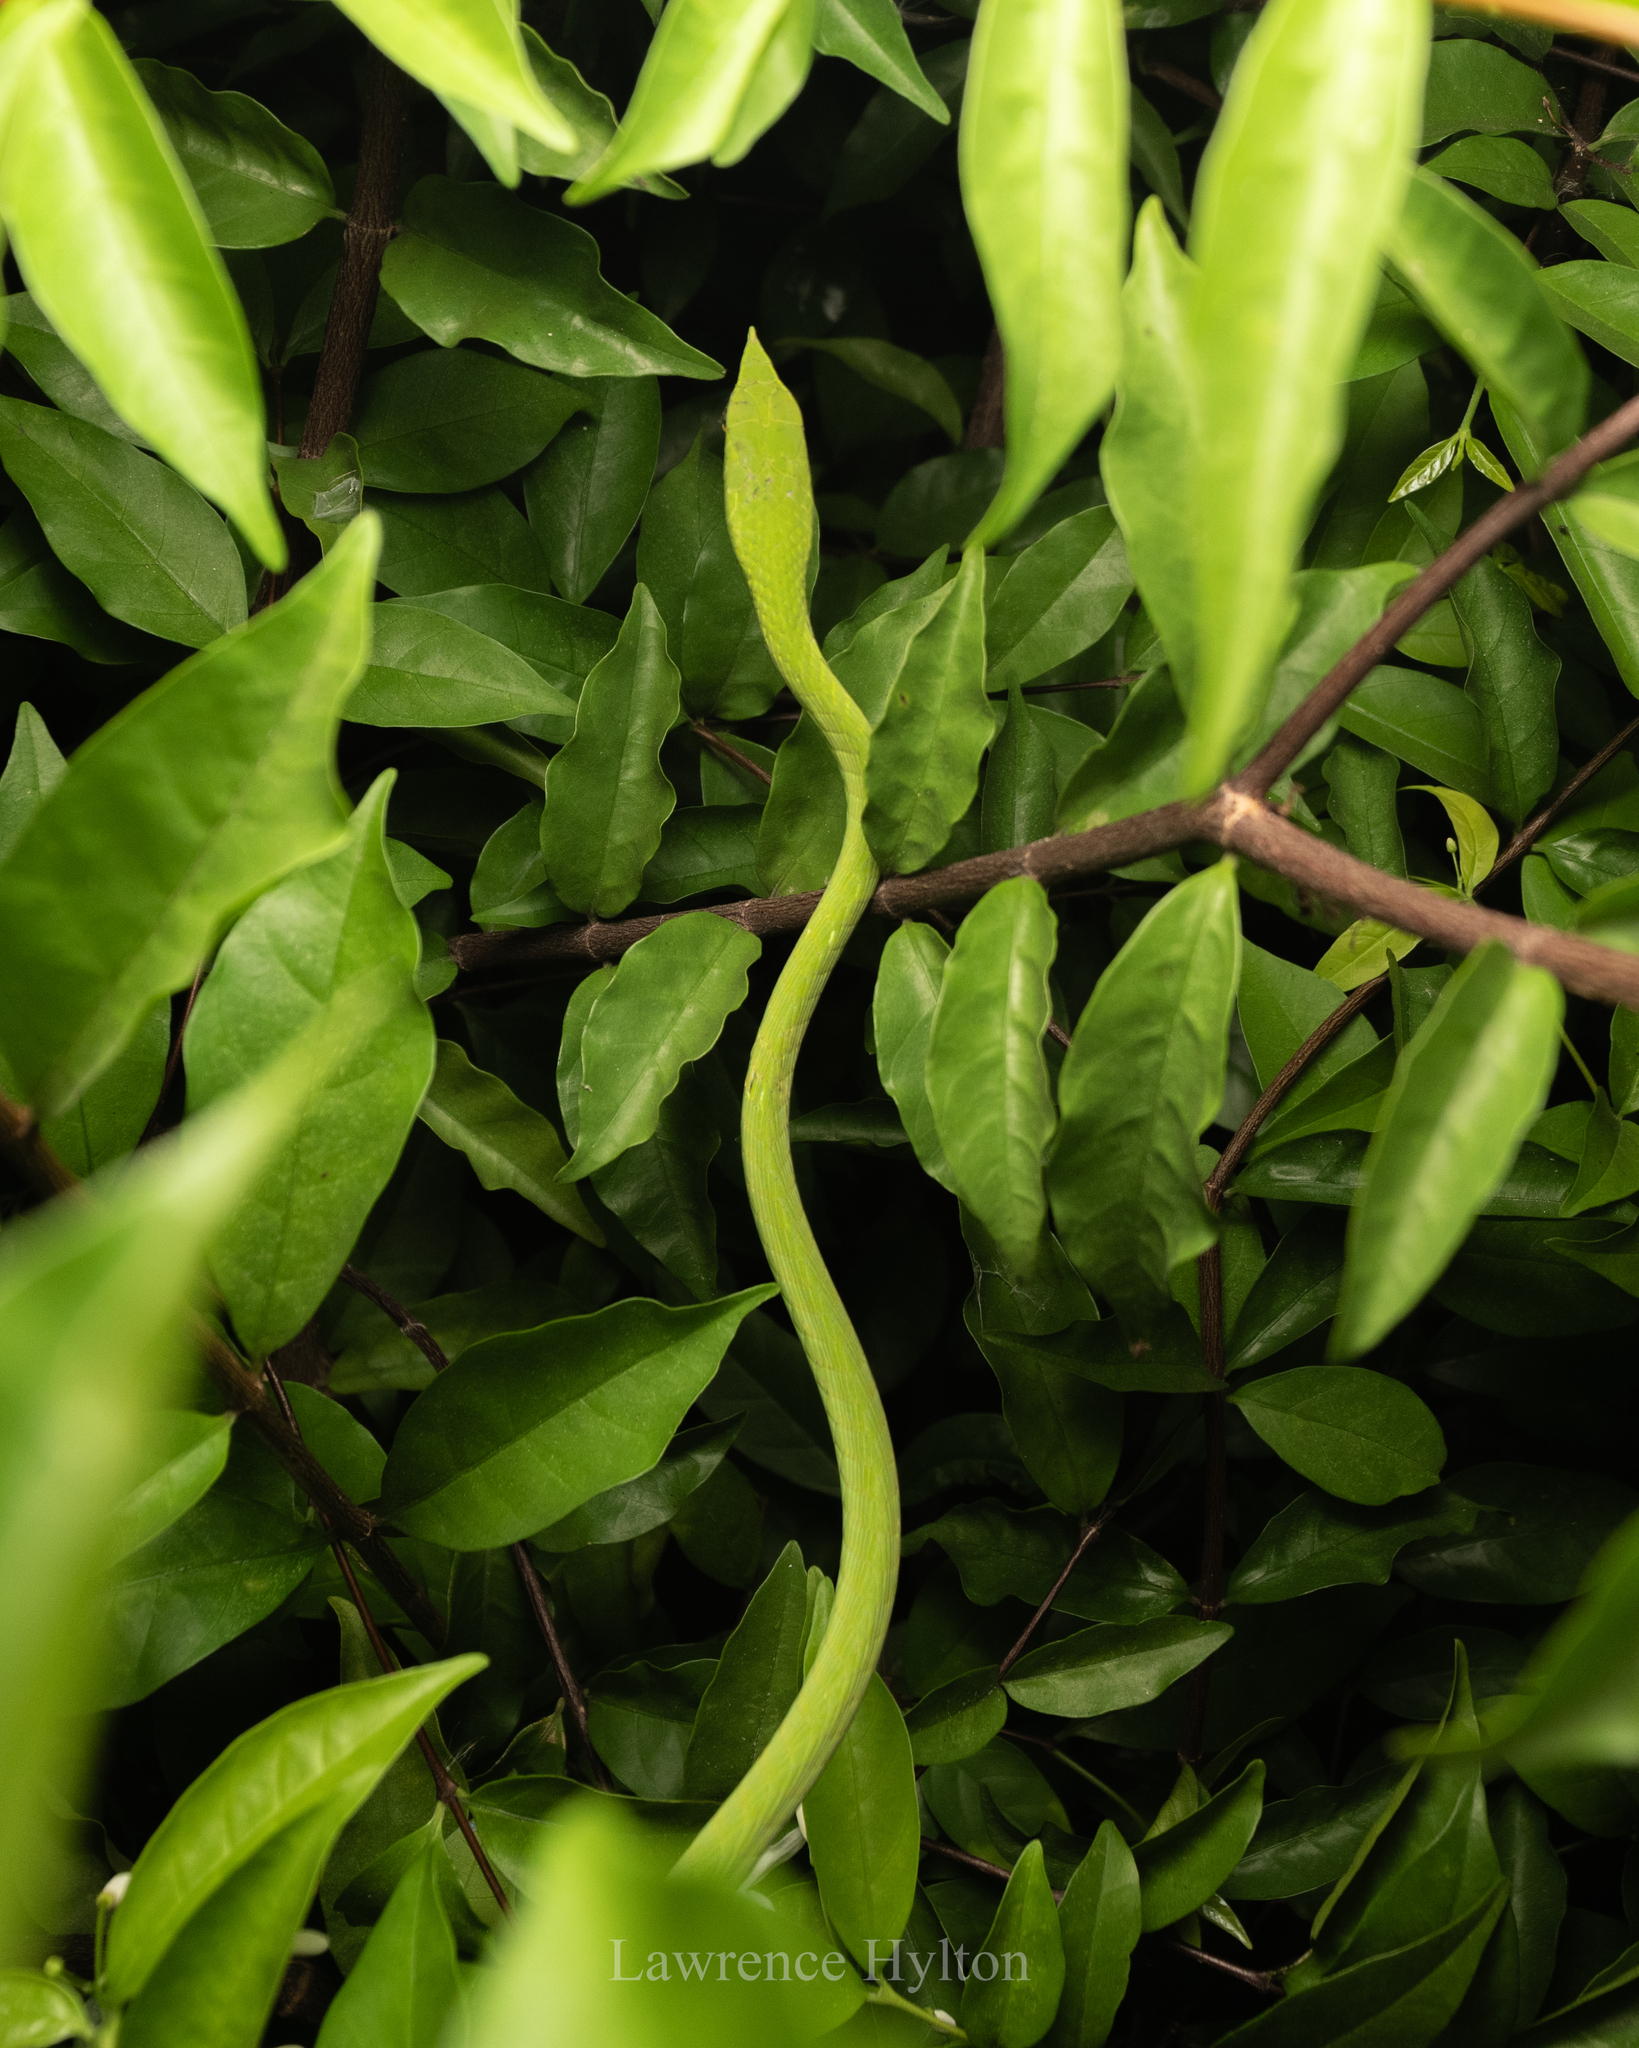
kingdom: Animalia
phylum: Chordata
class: Squamata
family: Colubridae
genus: Ahaetulla
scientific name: Ahaetulla prasina
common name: Oriental whip snake
